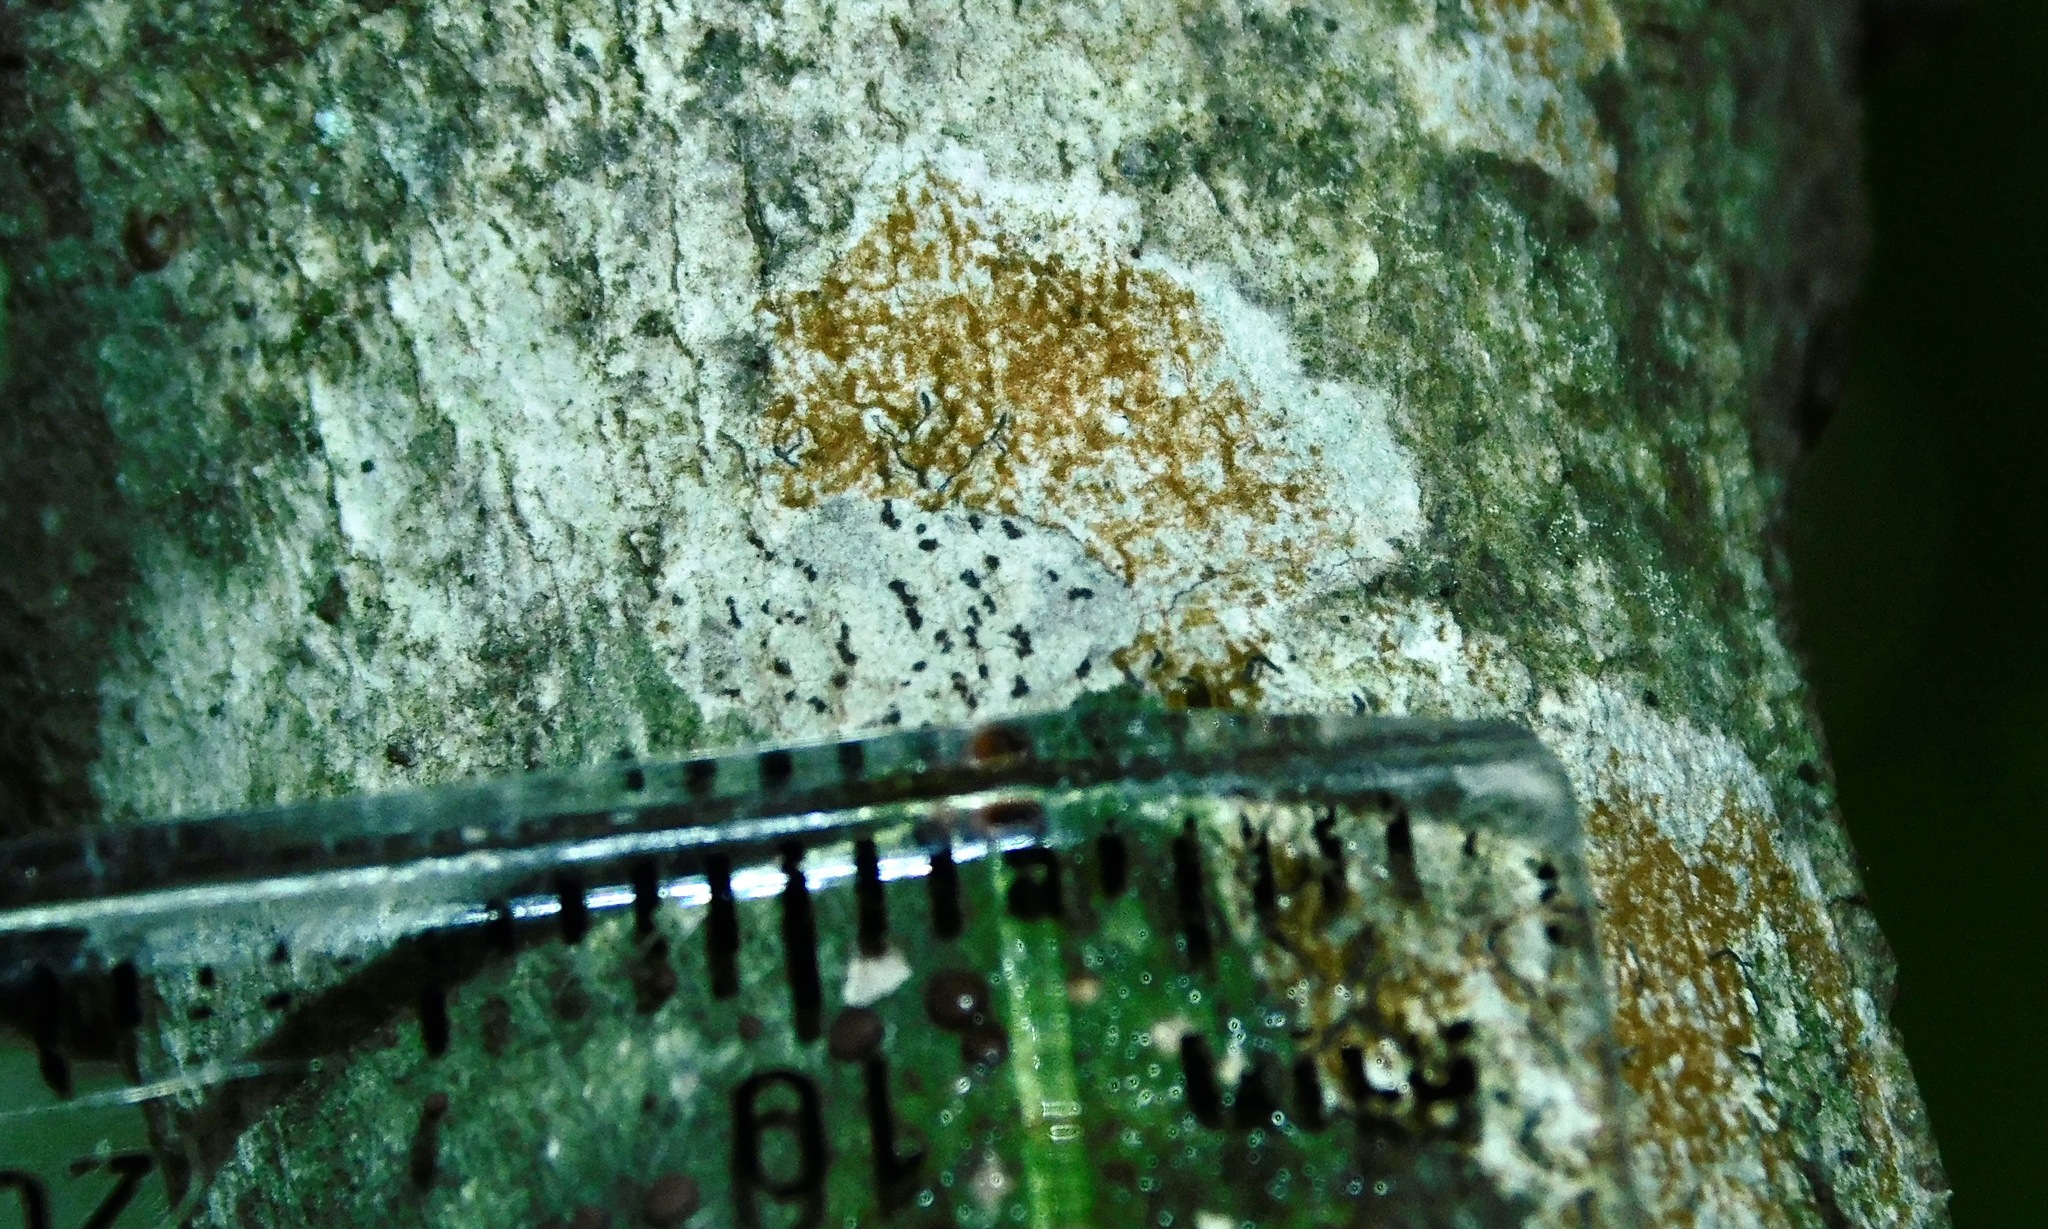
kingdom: Fungi
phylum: Ascomycota
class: Lecanoromycetes
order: Ostropales
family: Graphidaceae
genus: Graphis
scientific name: Graphis scripta
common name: Script lichen
